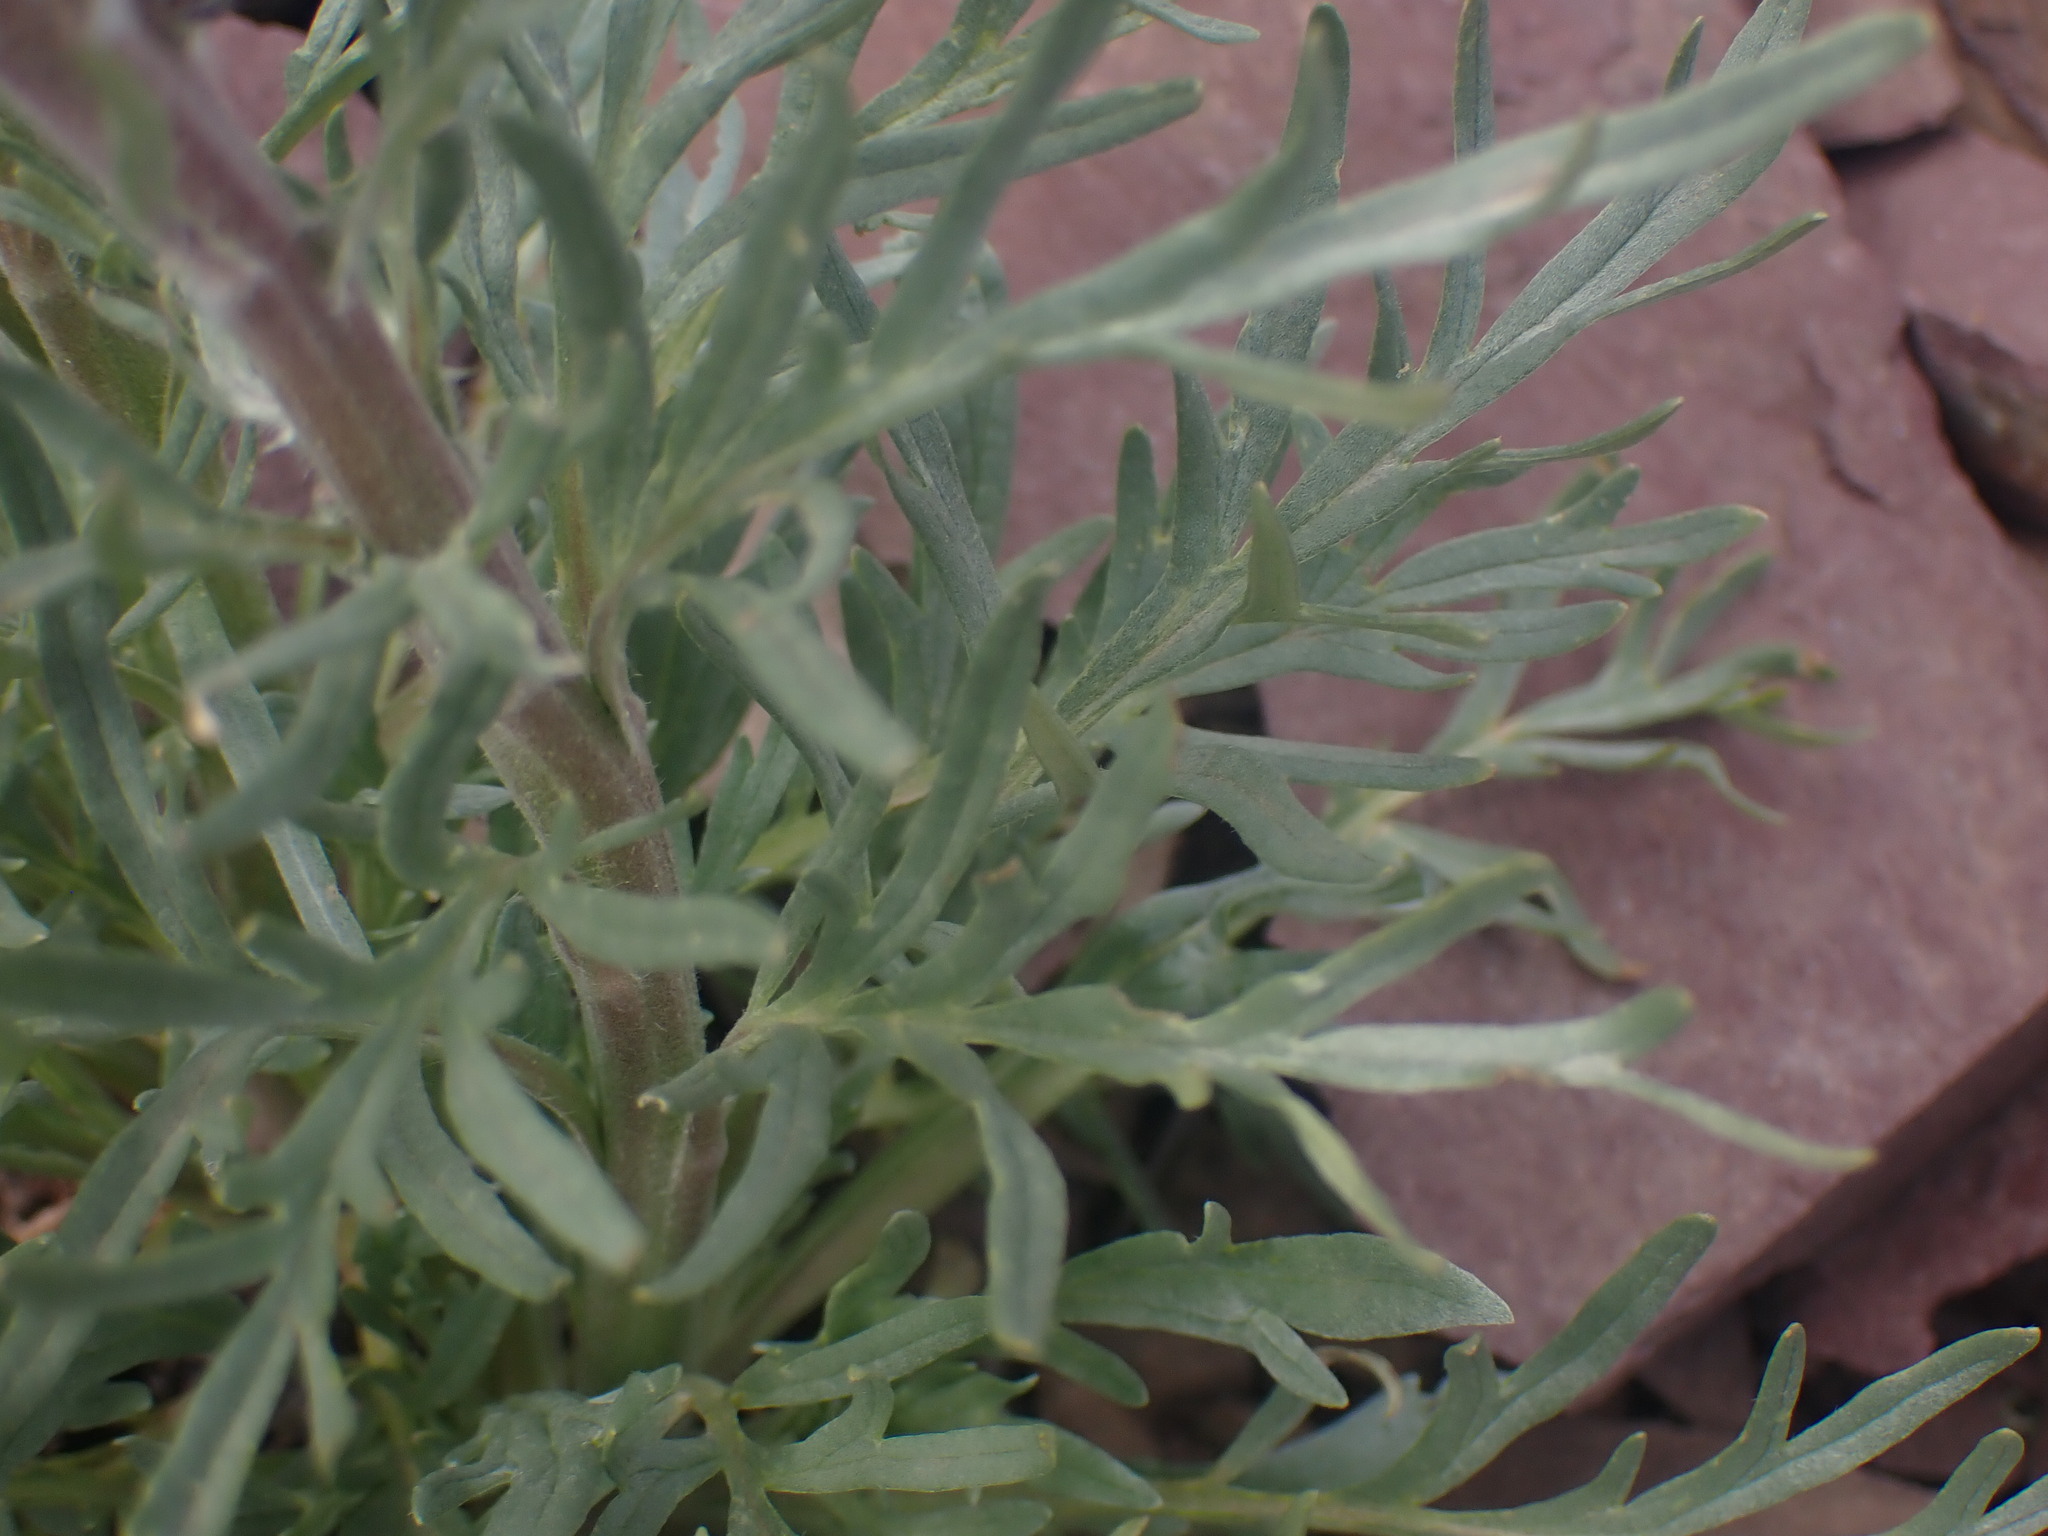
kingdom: Plantae
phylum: Tracheophyta
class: Magnoliopsida
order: Boraginales
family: Hydrophyllaceae
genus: Phacelia
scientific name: Phacelia sericea
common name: Silky phacelia
